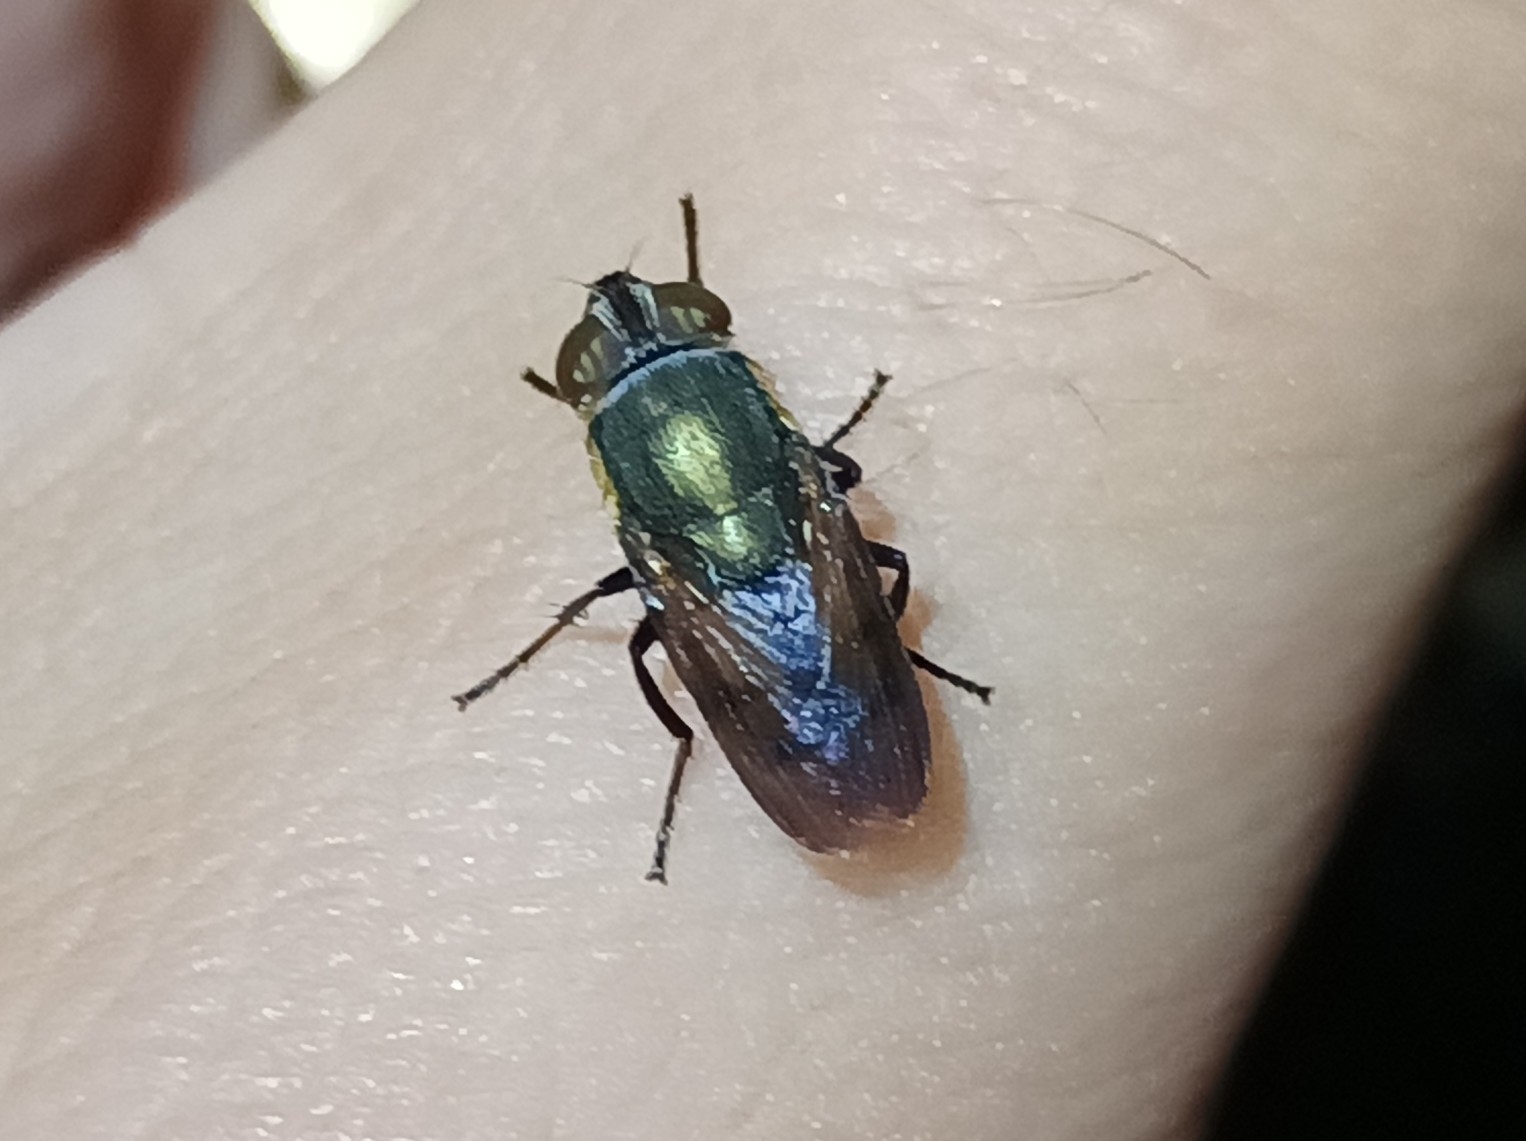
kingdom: Animalia
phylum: Arthropoda
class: Insecta
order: Diptera
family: Calliphoridae
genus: Idiellopsis
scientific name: Idiellopsis xanthogaster
